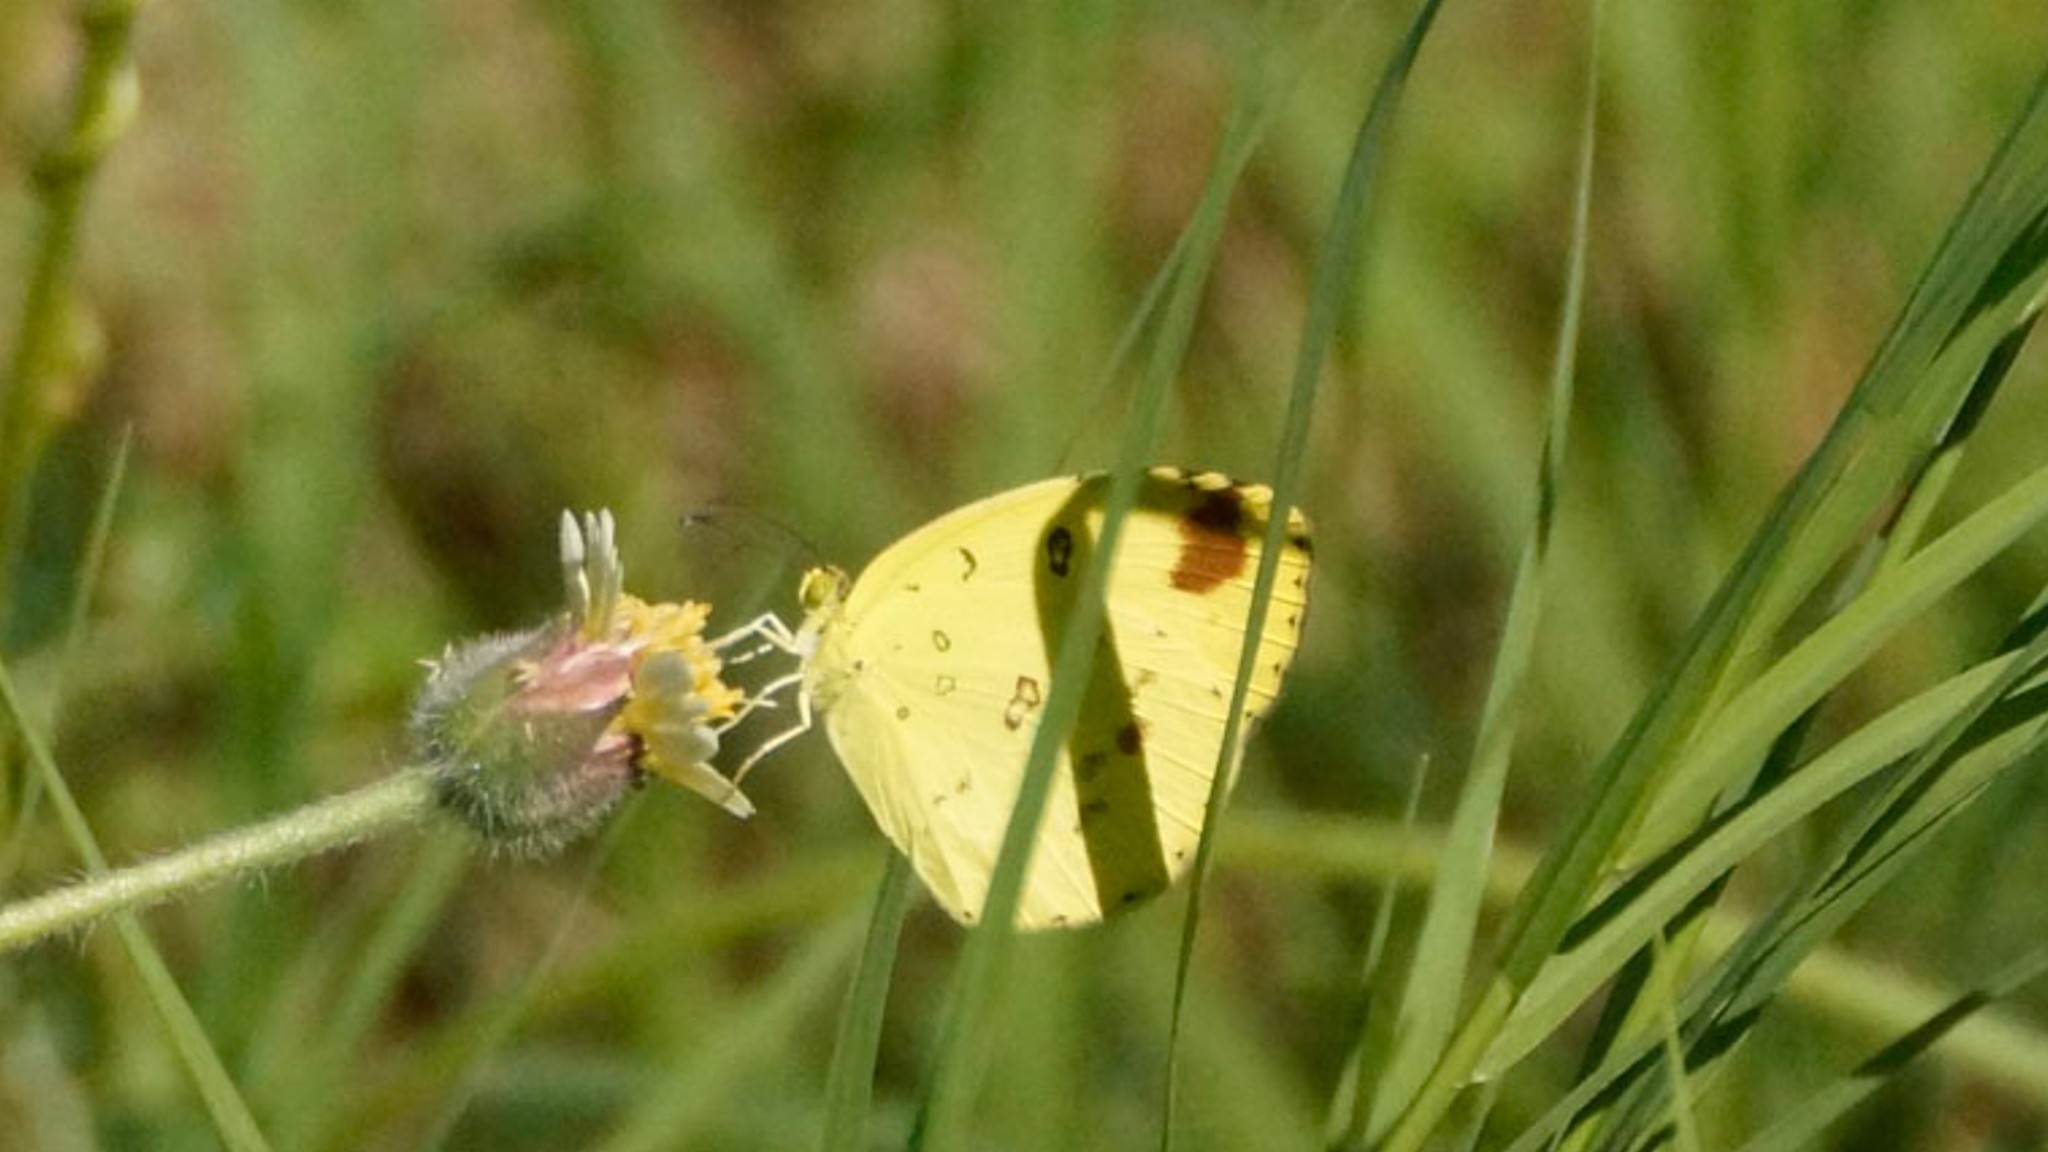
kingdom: Animalia
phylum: Arthropoda
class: Insecta
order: Lepidoptera
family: Pieridae
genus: Eurema
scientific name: Eurema hecabe
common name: Pale grass yellow
